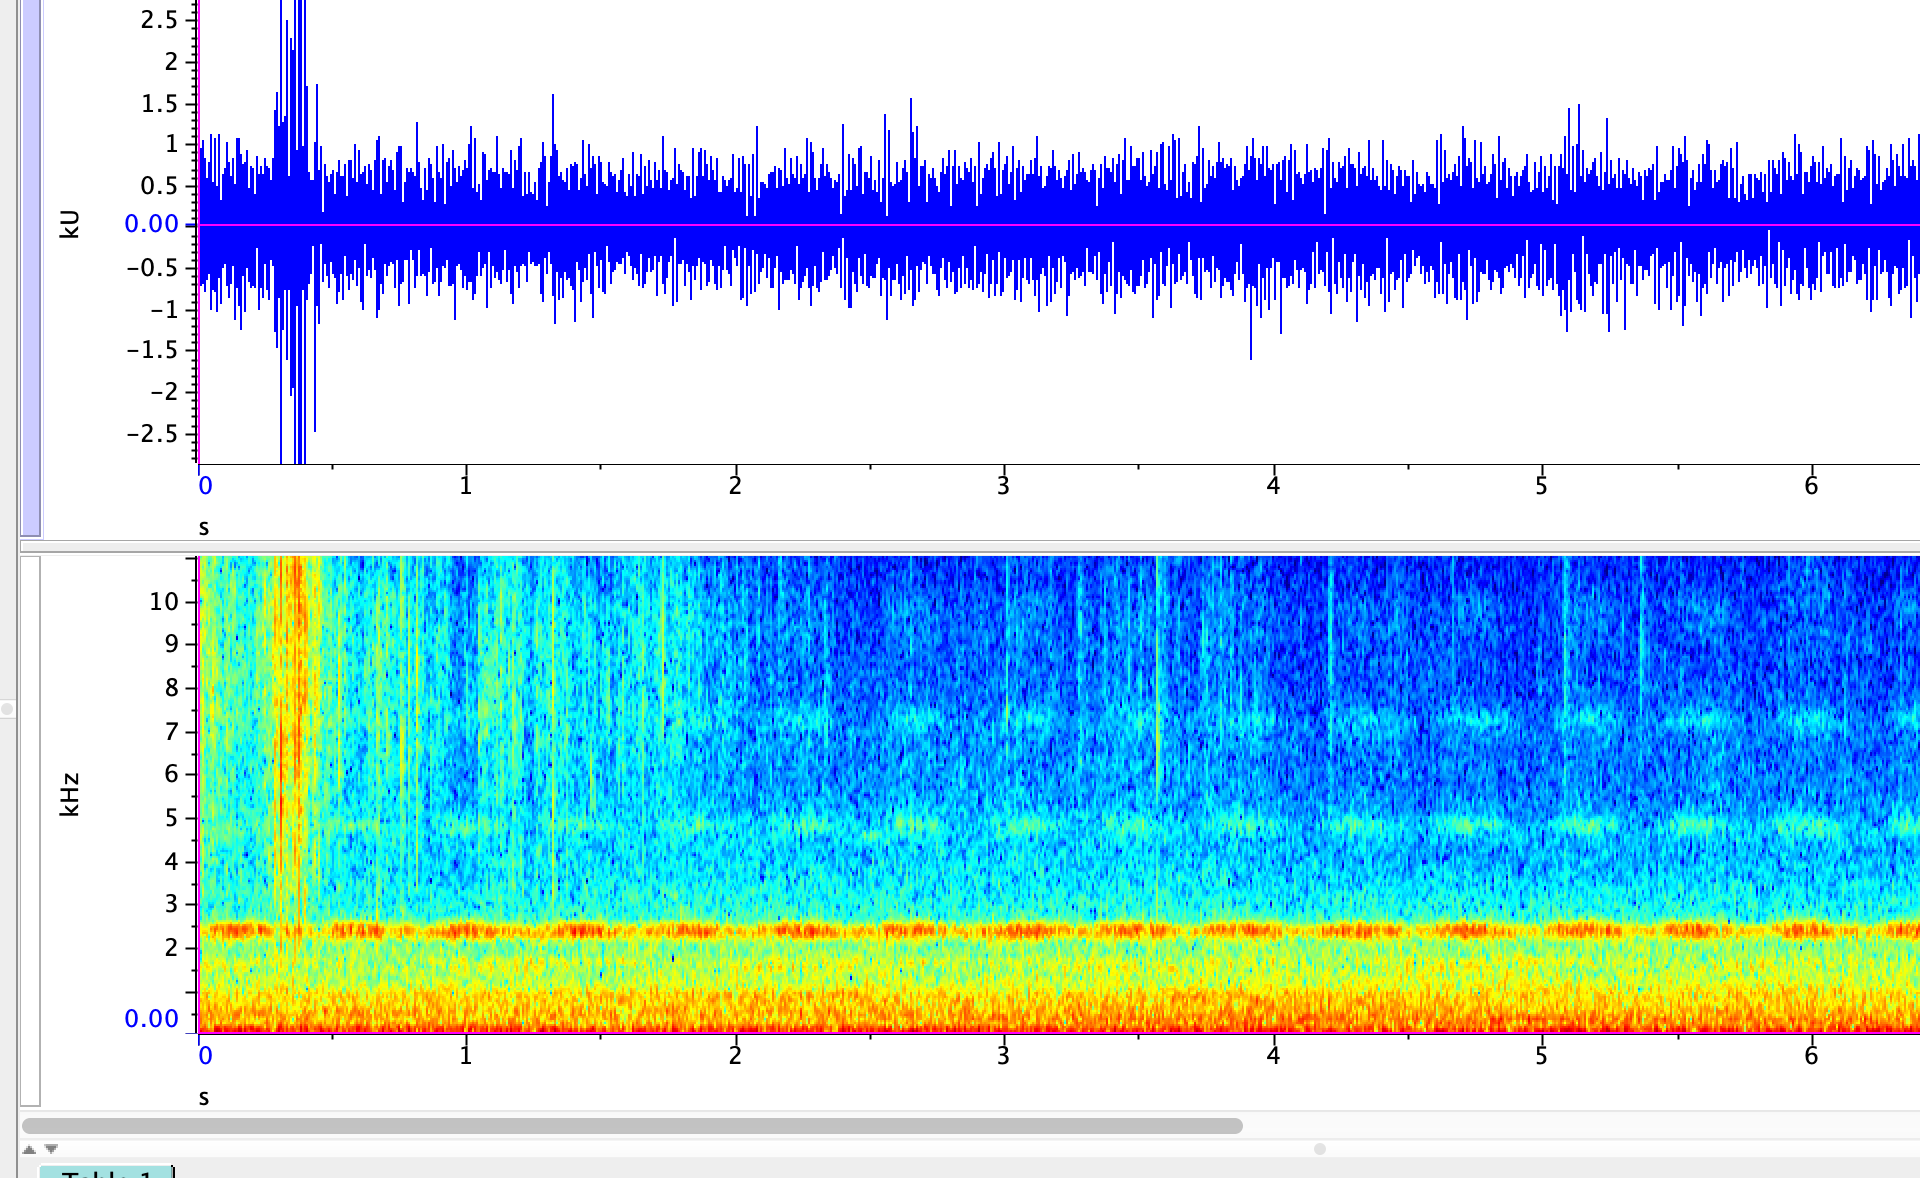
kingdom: Animalia
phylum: Arthropoda
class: Insecta
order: Orthoptera
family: Gryllidae
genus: Oecanthus
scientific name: Oecanthus fultoni
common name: Snowy tree cricket
